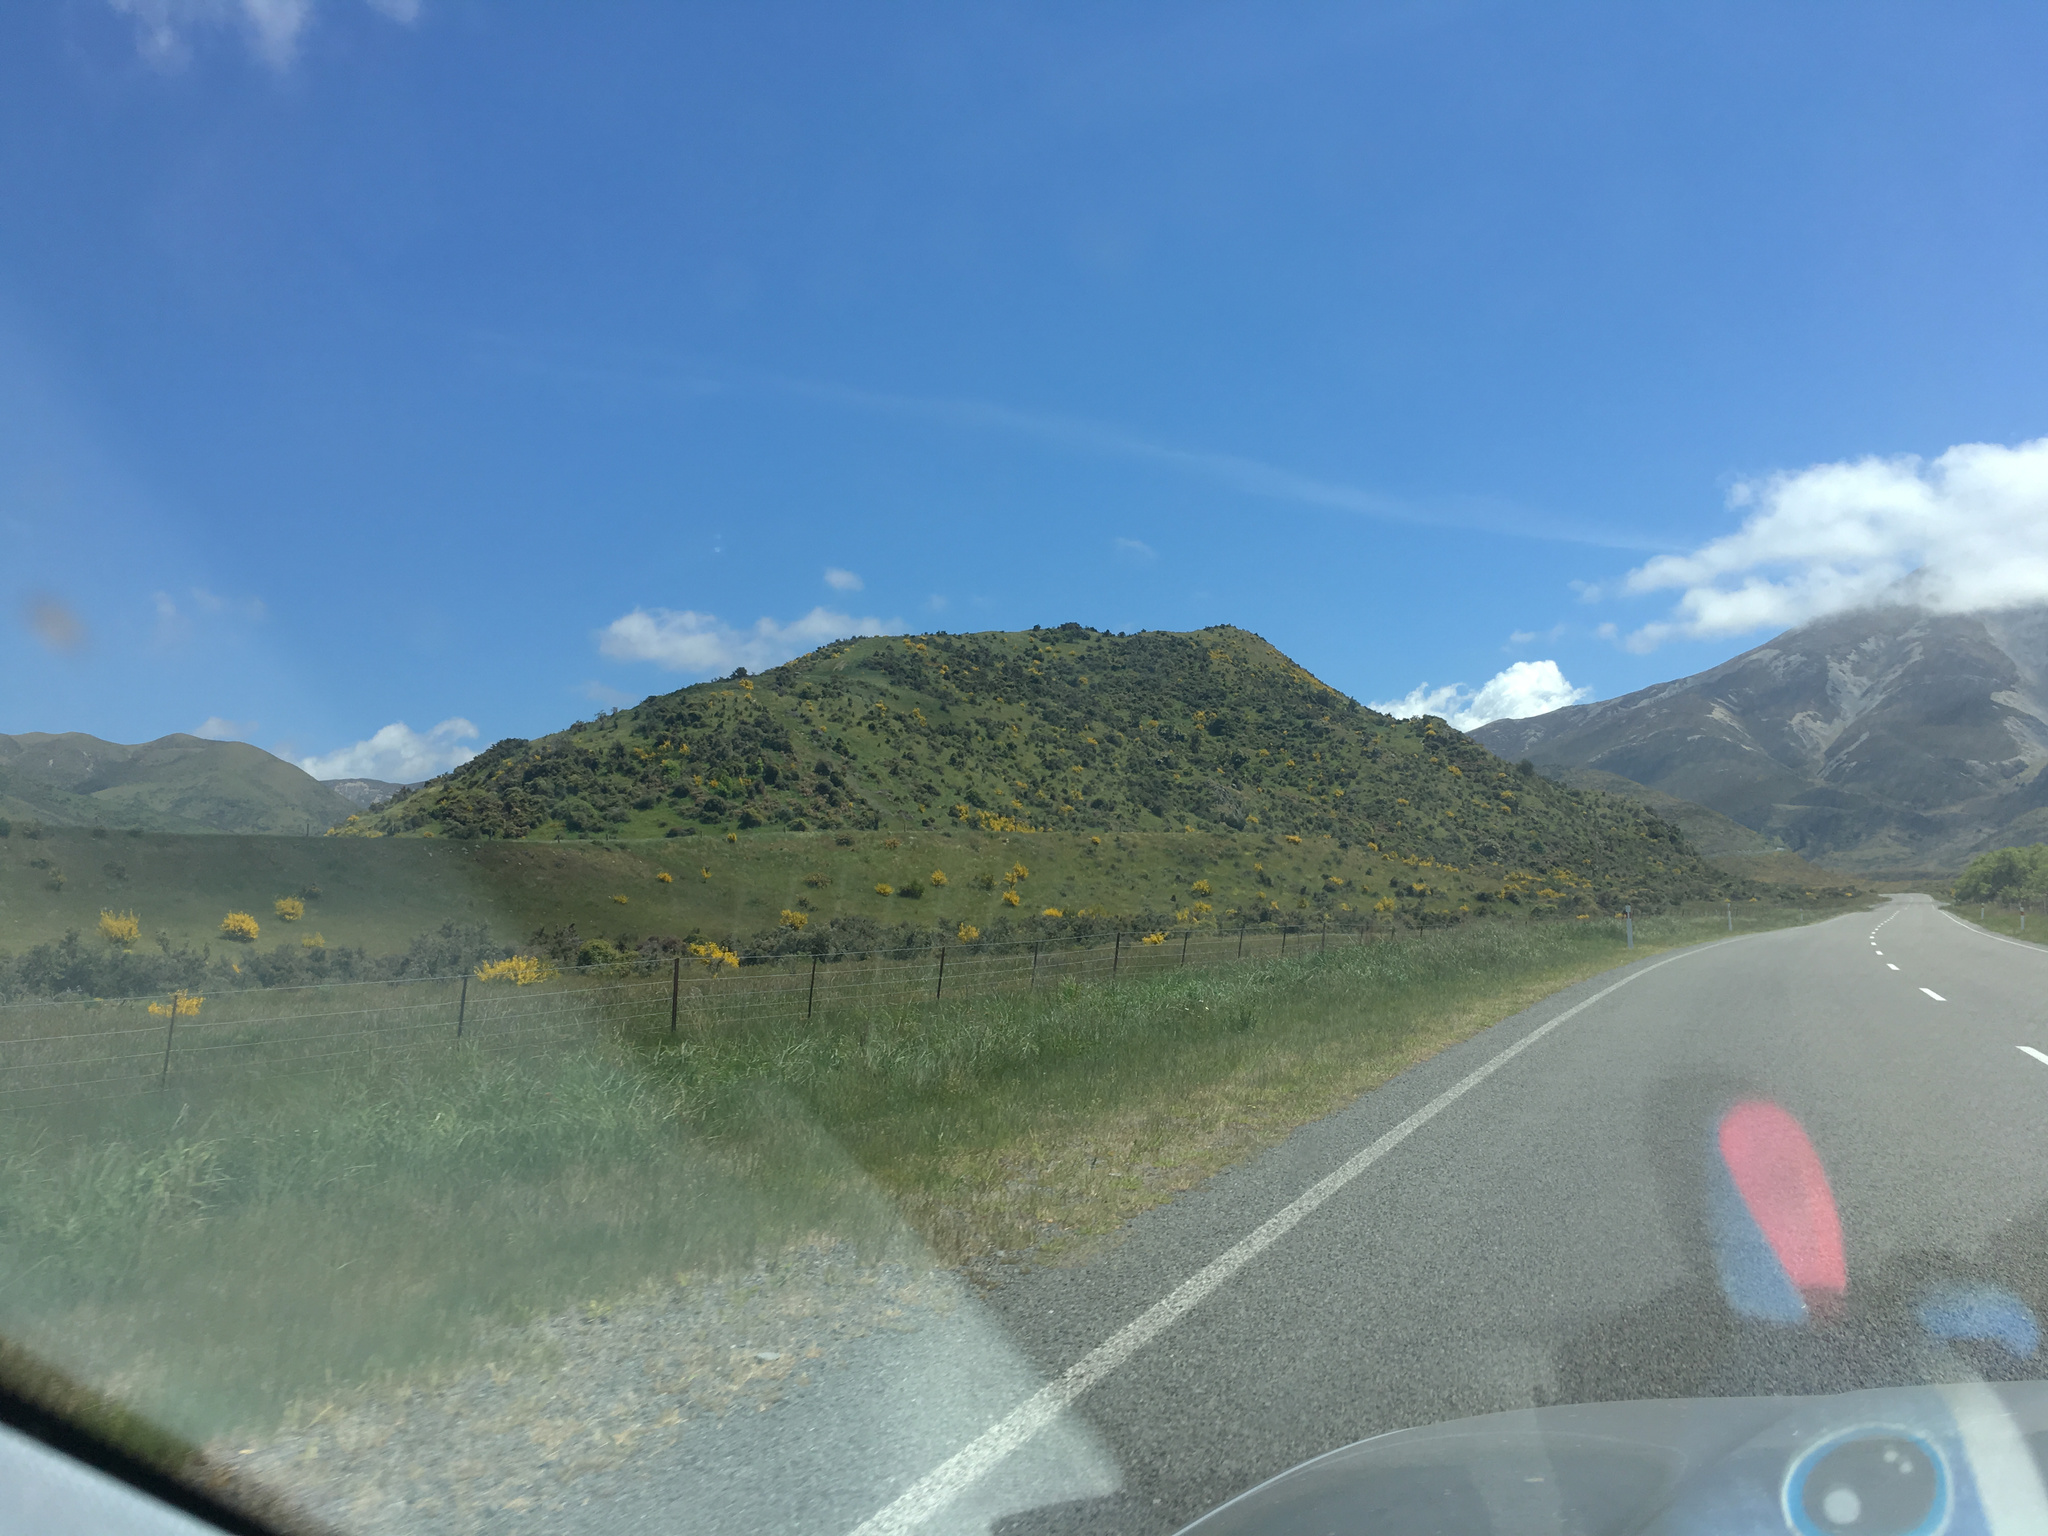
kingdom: Plantae
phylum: Tracheophyta
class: Magnoliopsida
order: Fabales
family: Fabaceae
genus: Cytisus
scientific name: Cytisus scoparius
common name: Scotch broom
